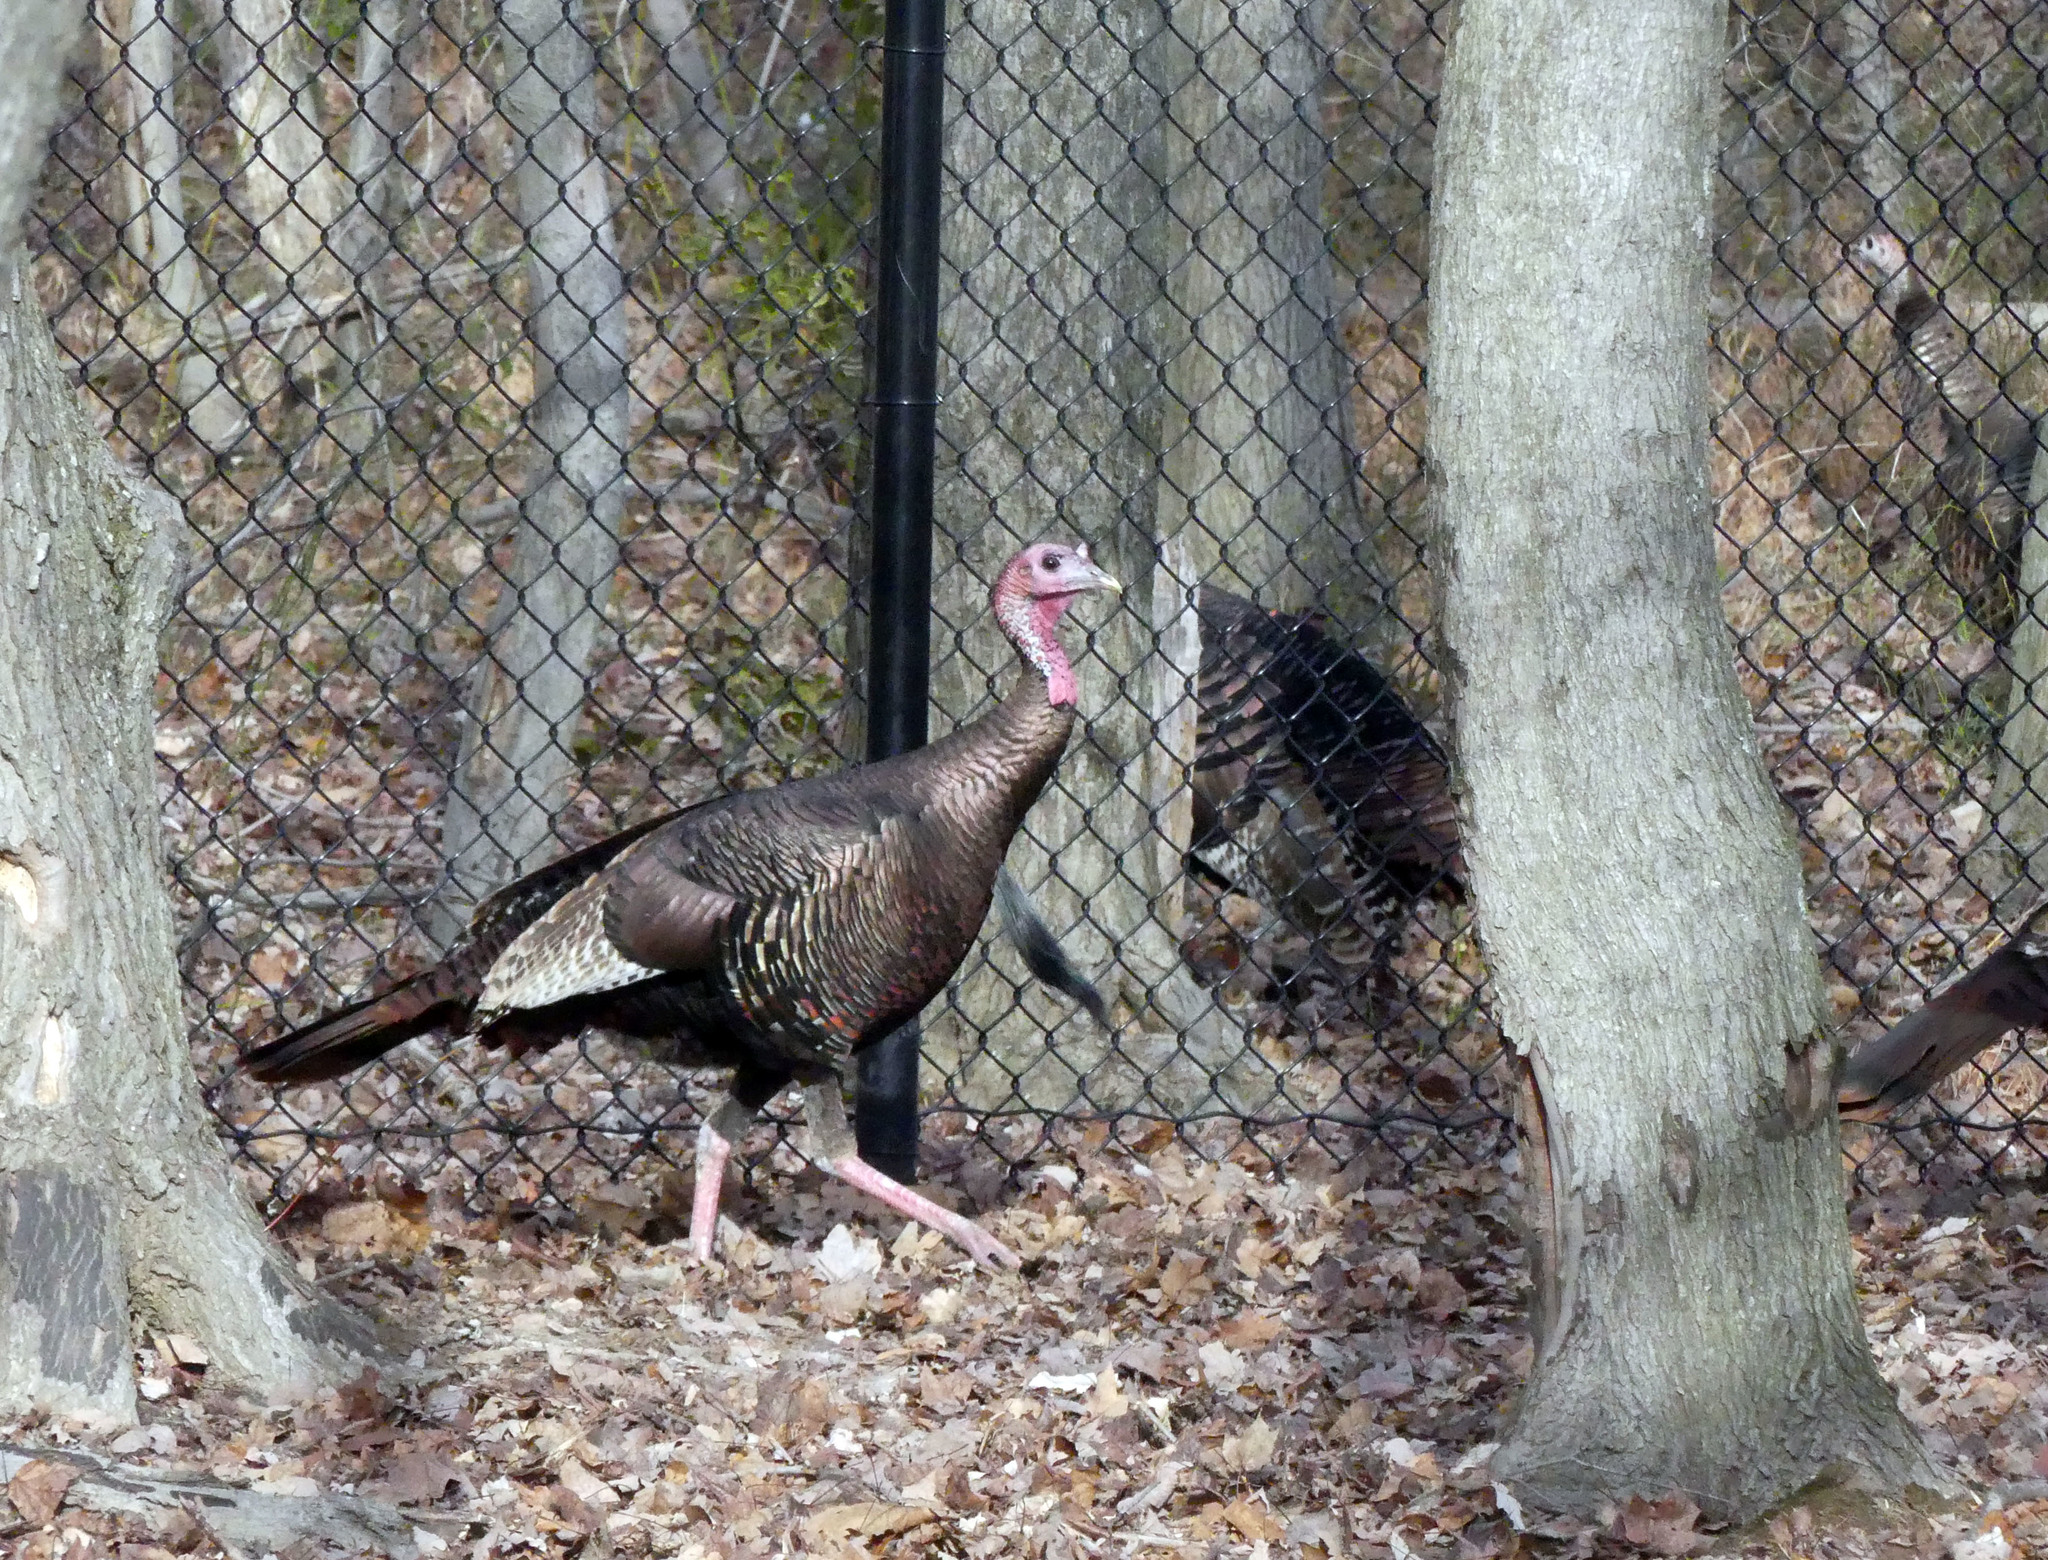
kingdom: Animalia
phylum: Chordata
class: Aves
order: Galliformes
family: Phasianidae
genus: Meleagris
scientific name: Meleagris gallopavo
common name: Wild turkey
